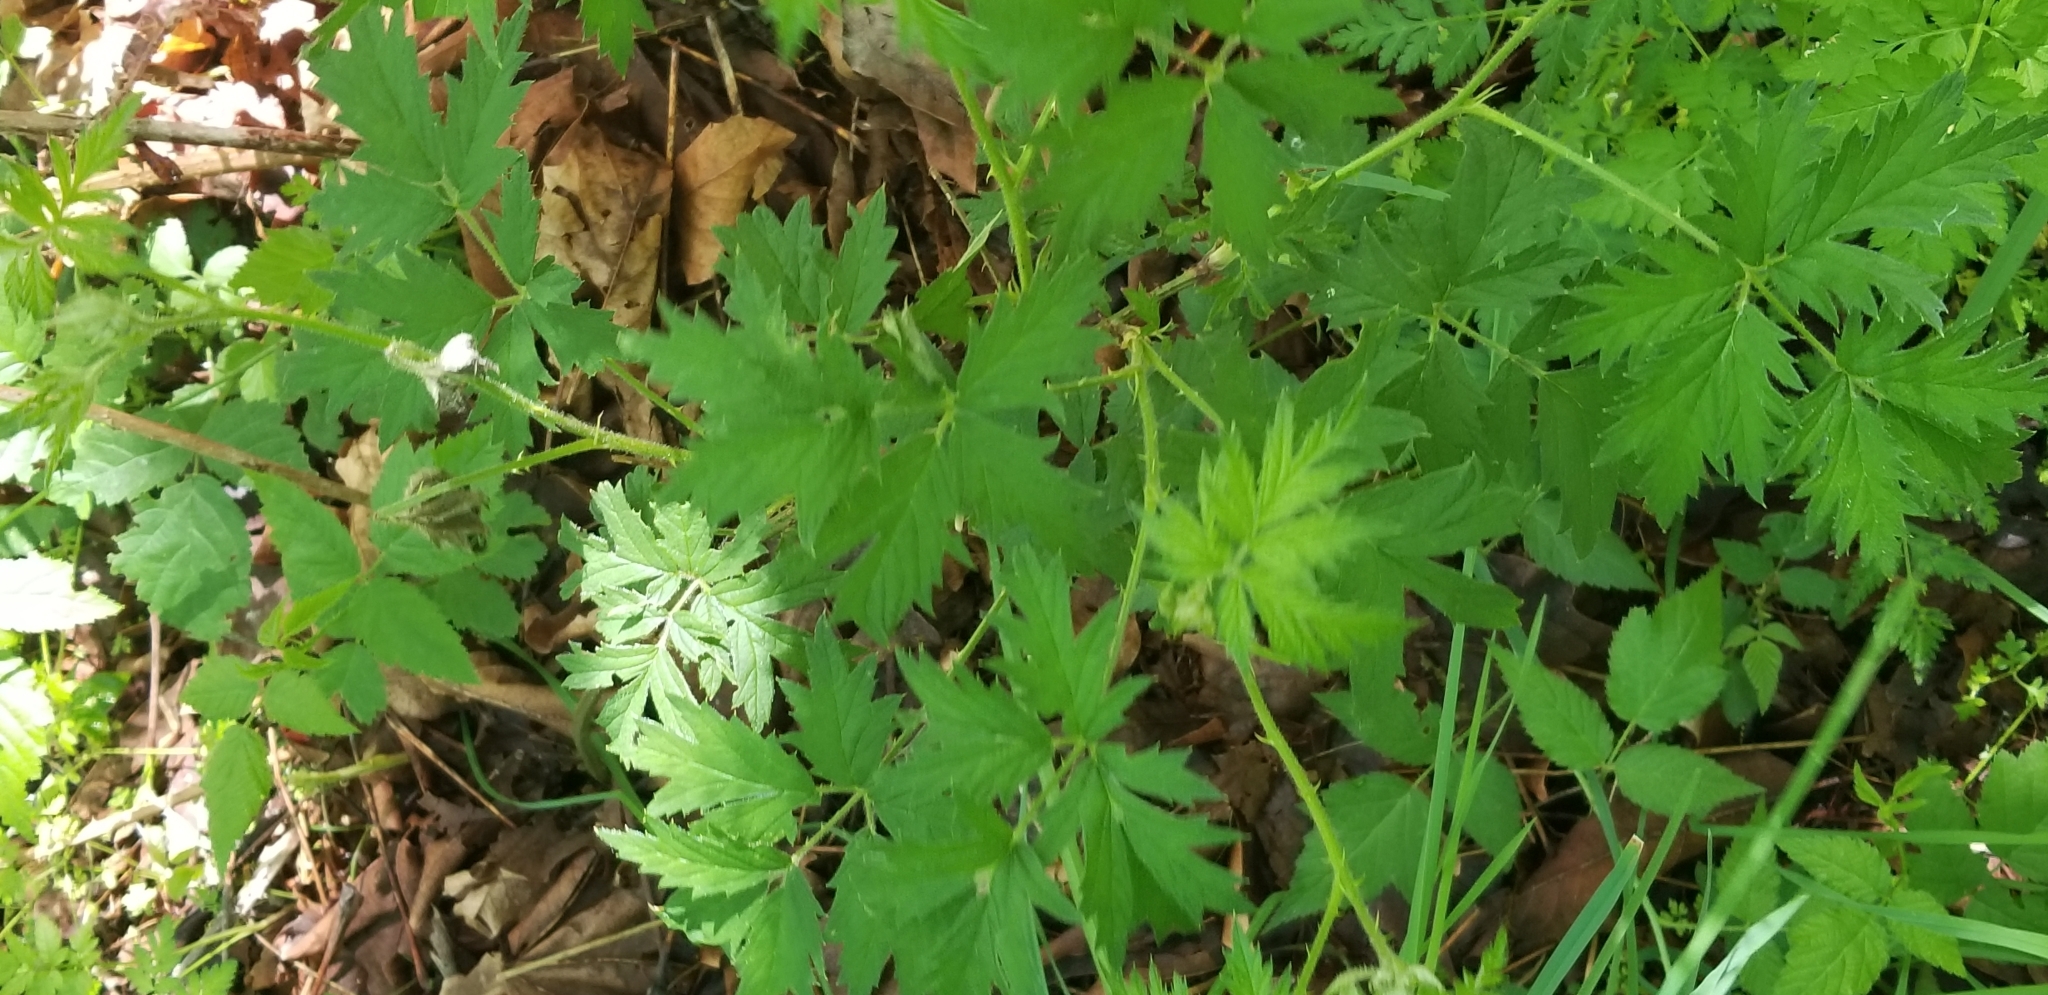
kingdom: Plantae
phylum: Tracheophyta
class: Magnoliopsida
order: Rosales
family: Rosaceae
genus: Rubus
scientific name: Rubus laciniatus
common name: Evergreen blackberry
